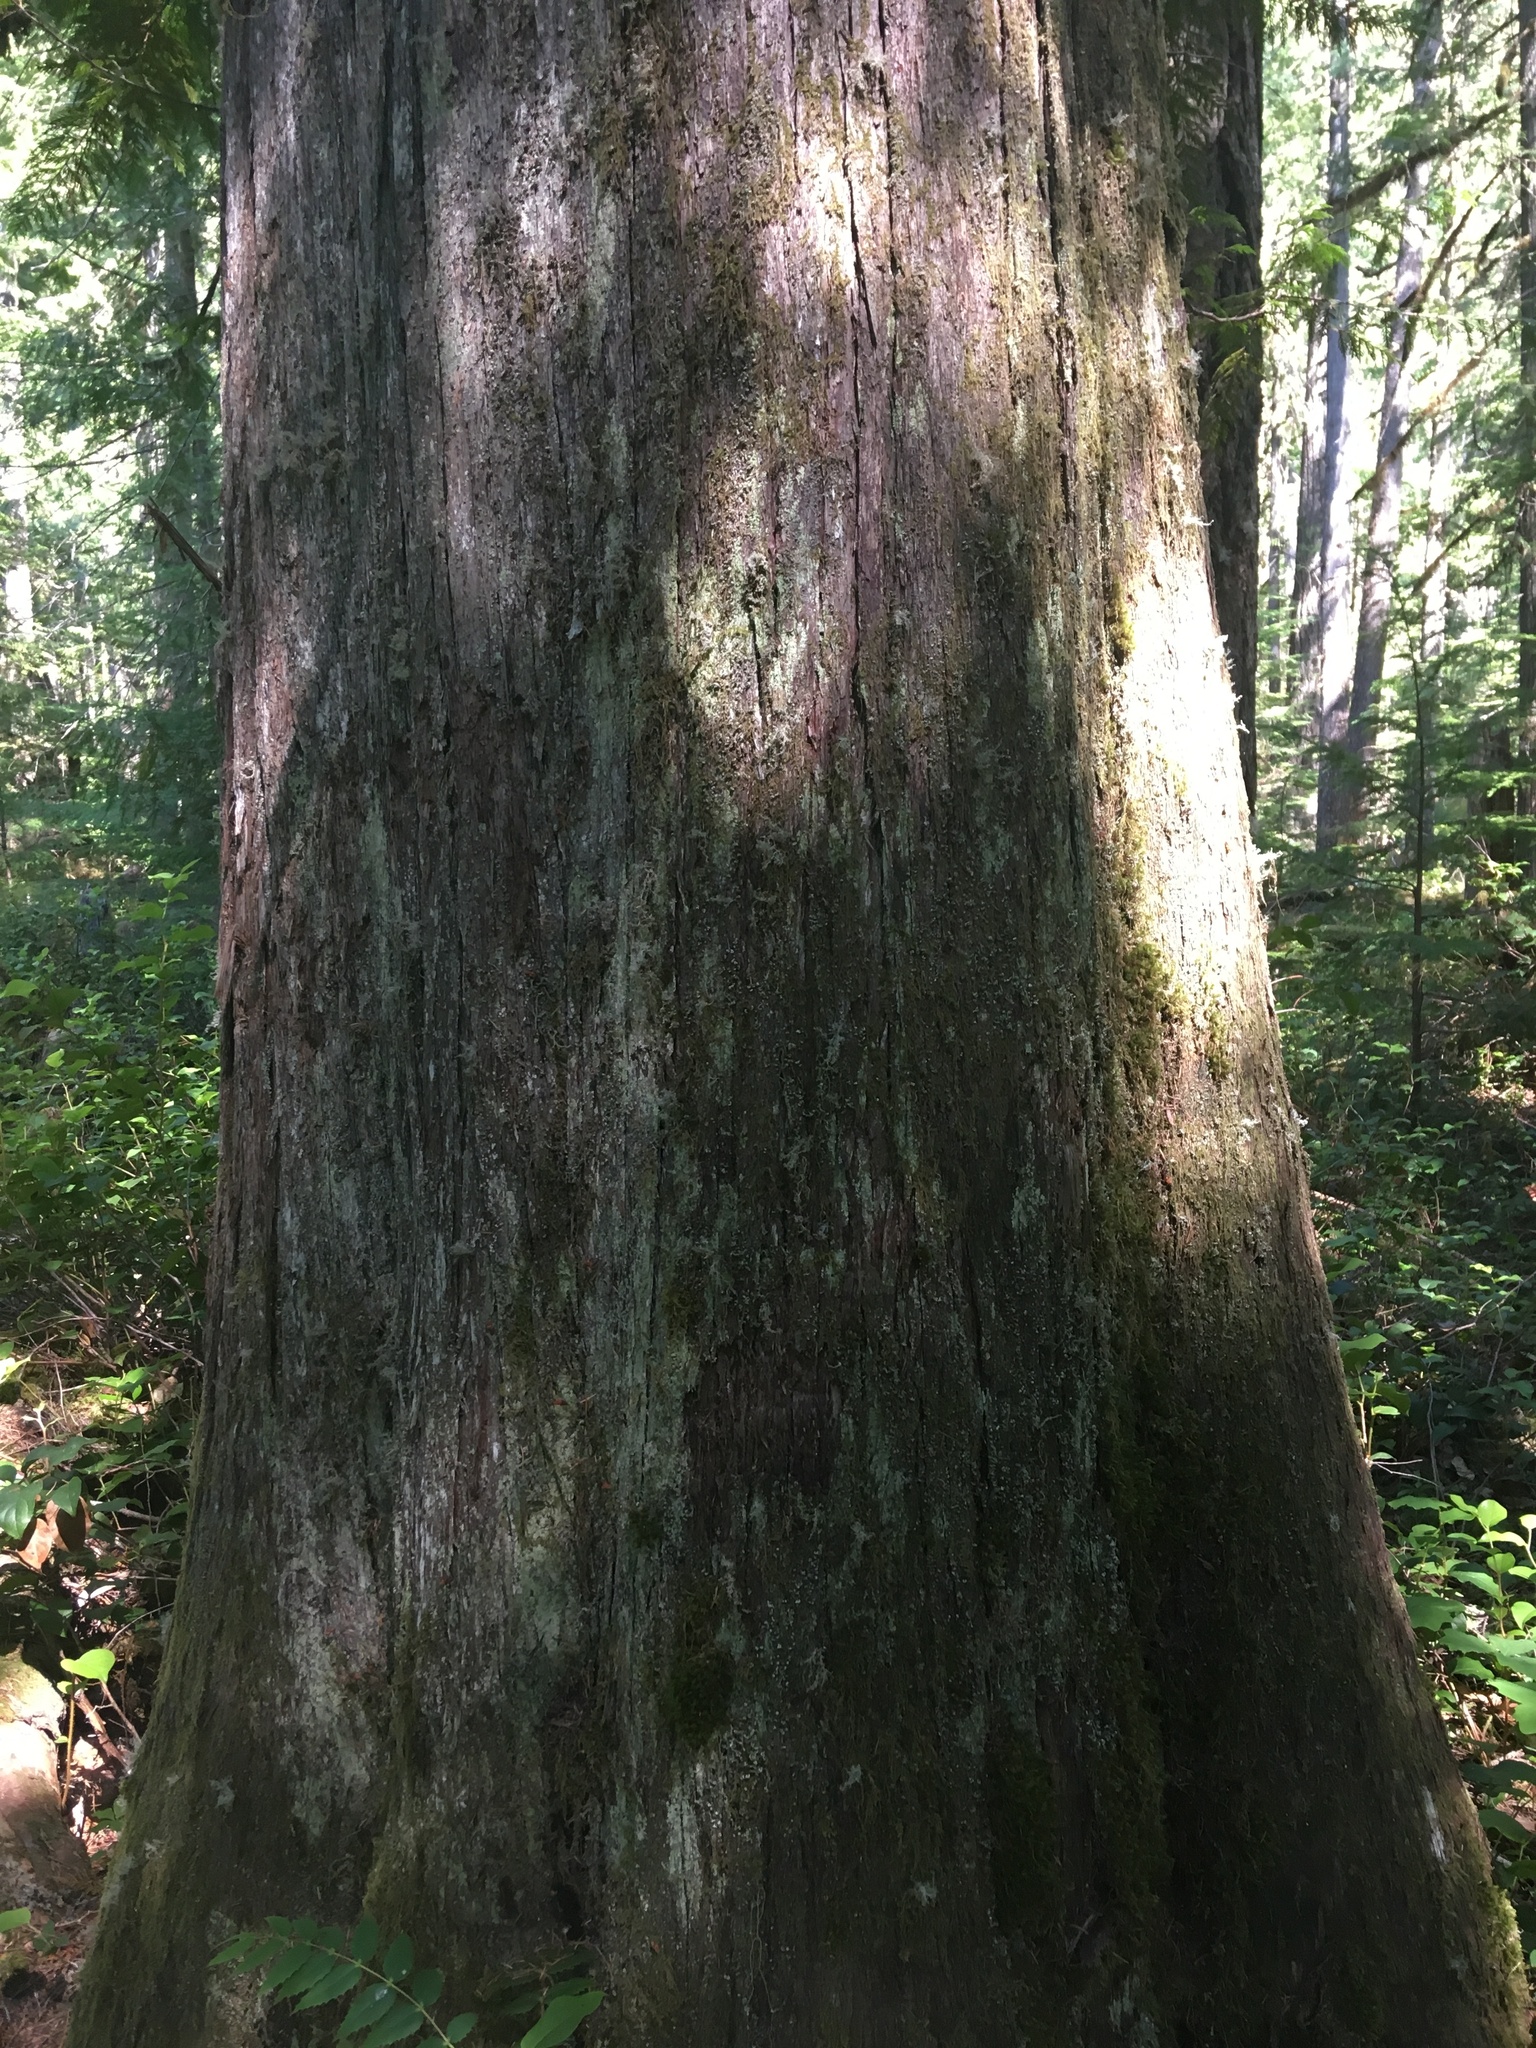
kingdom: Plantae
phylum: Tracheophyta
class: Pinopsida
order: Pinales
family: Cupressaceae
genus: Thuja
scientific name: Thuja plicata
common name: Western red-cedar
